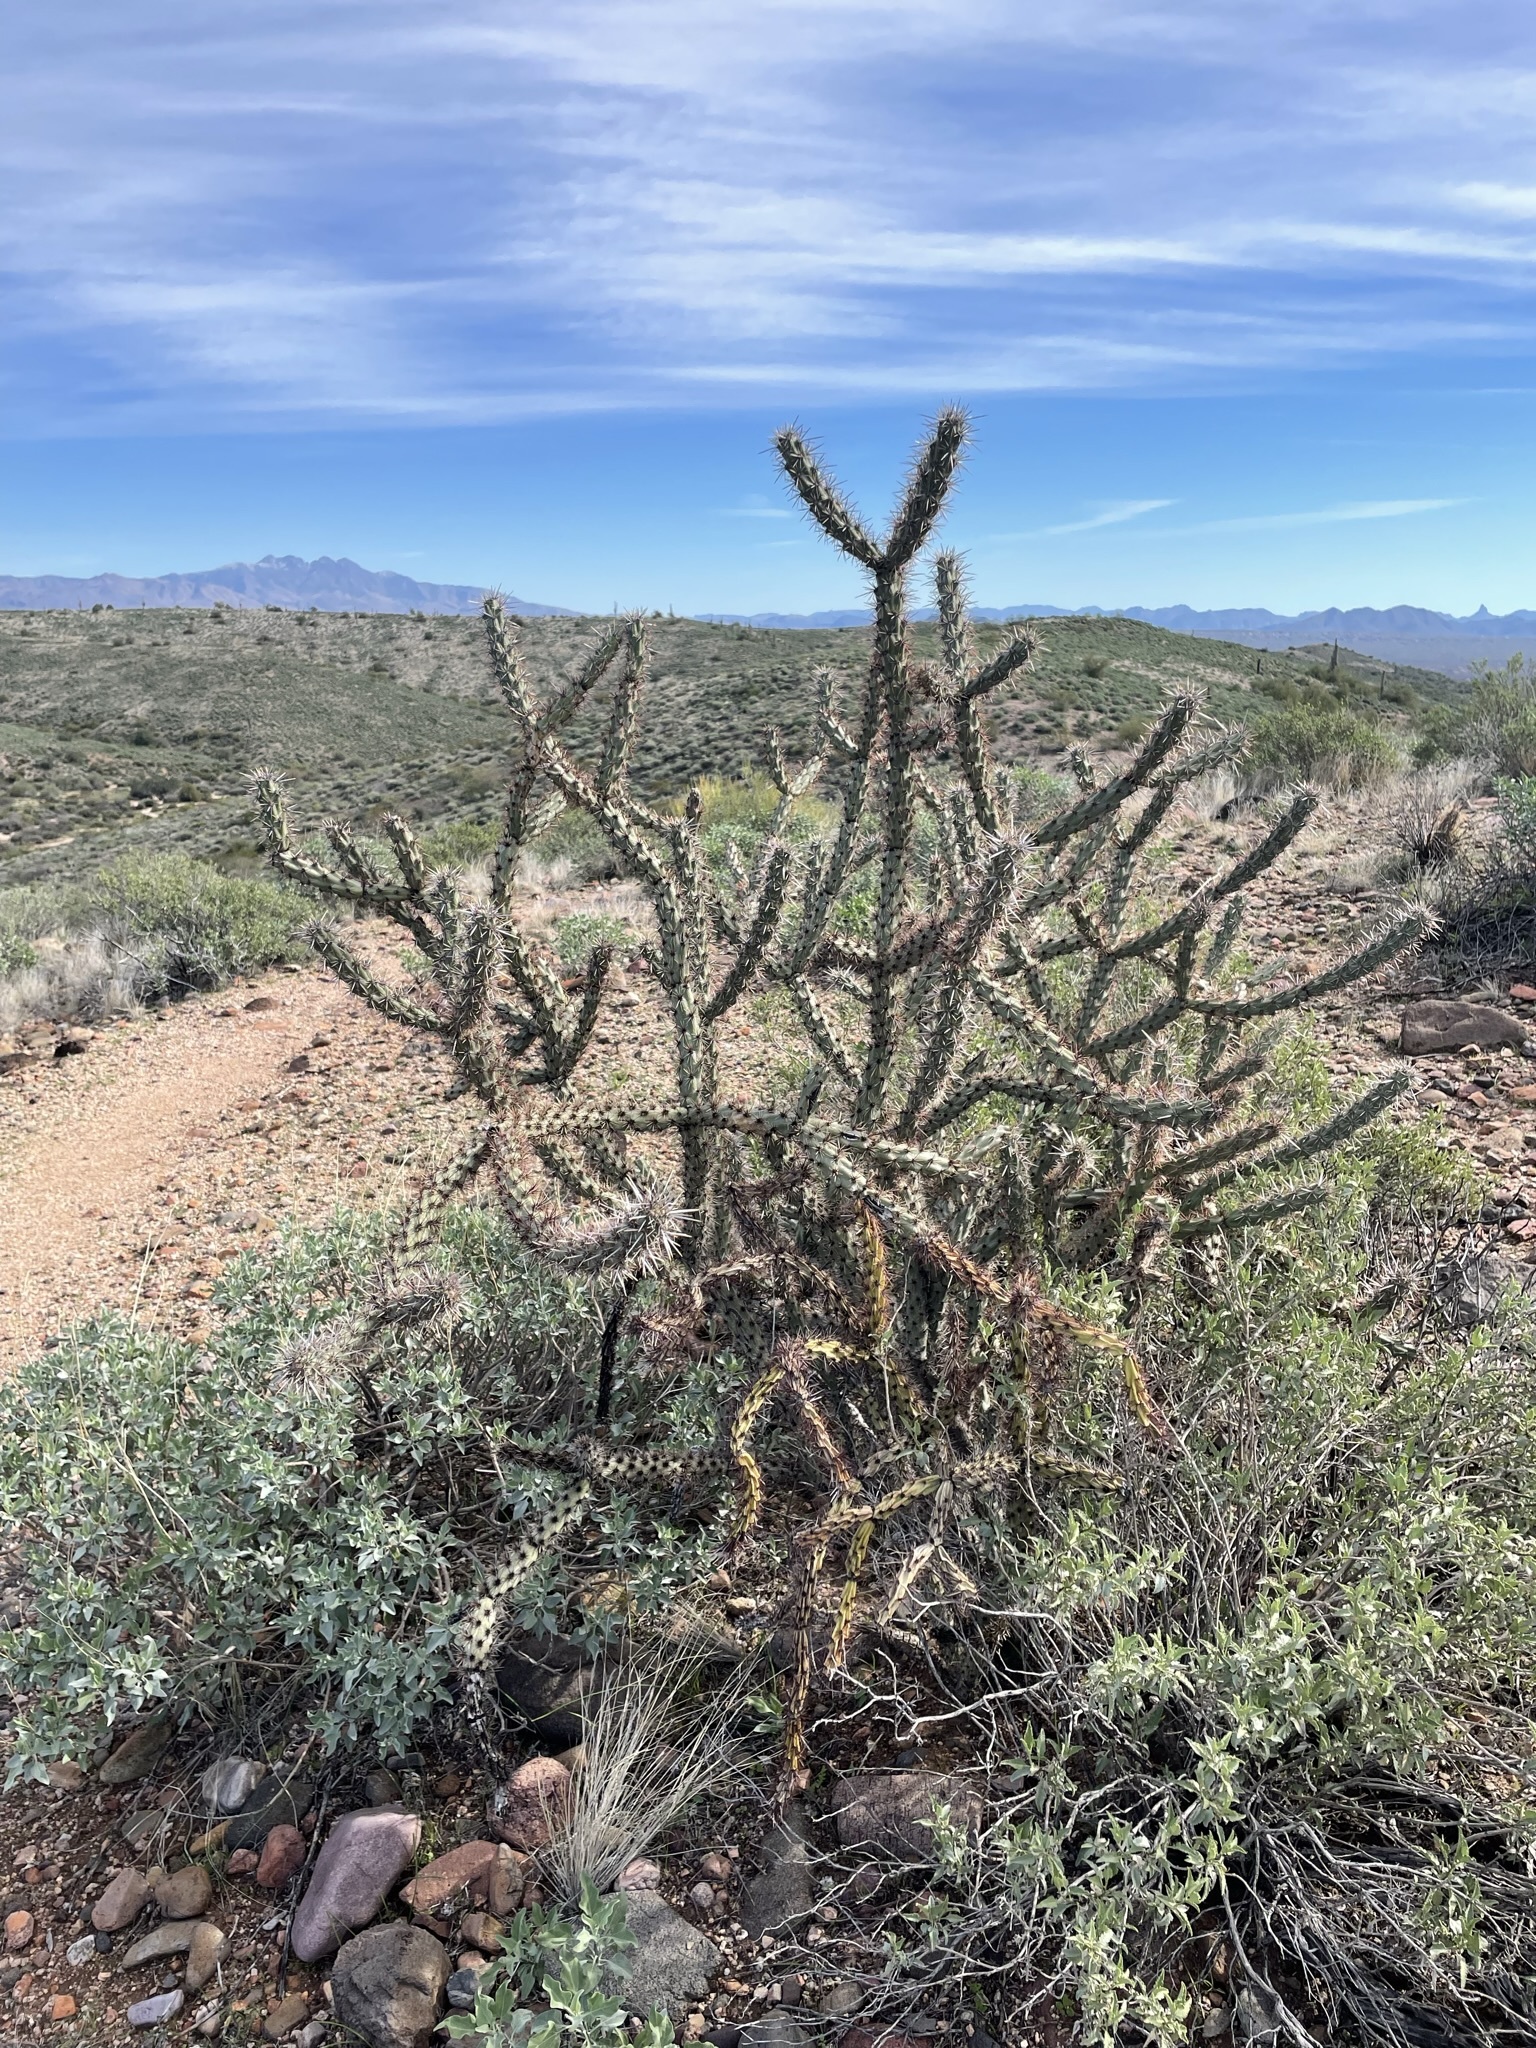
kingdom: Plantae
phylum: Tracheophyta
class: Magnoliopsida
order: Caryophyllales
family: Cactaceae
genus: Cylindropuntia
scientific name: Cylindropuntia acanthocarpa
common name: Buckhorn cholla
